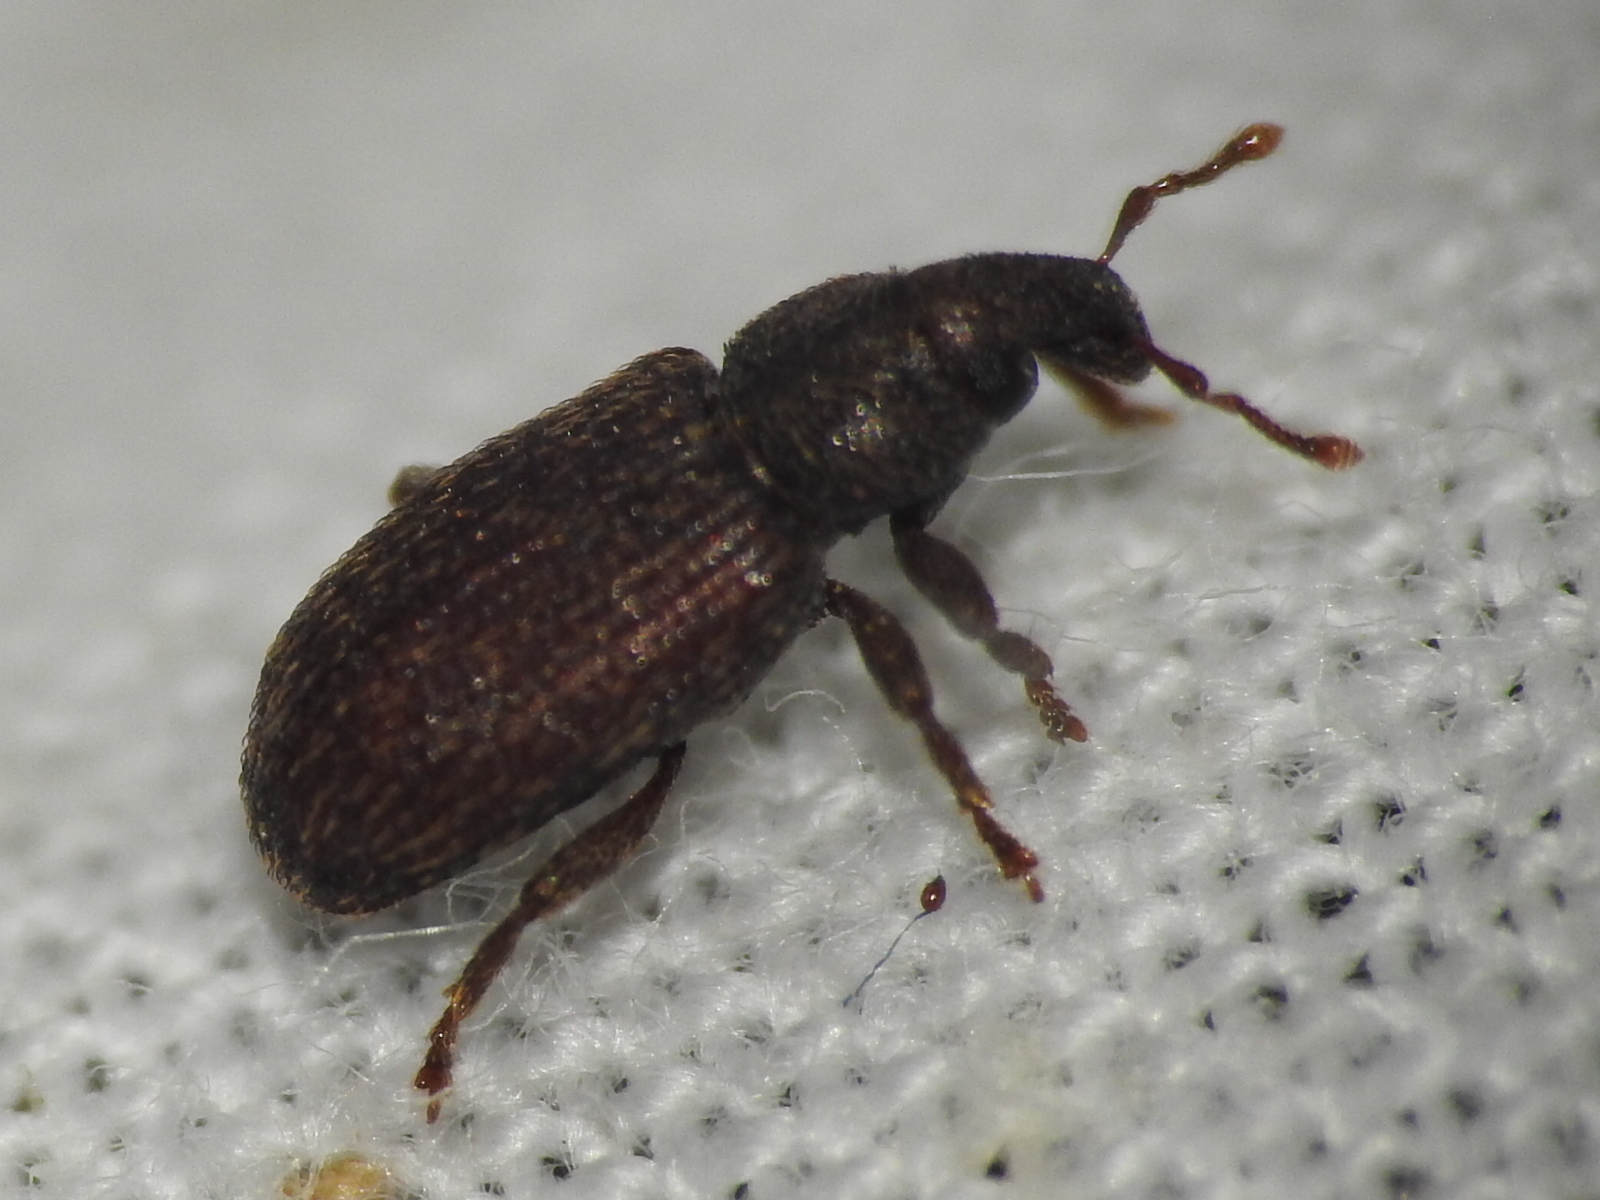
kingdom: Animalia
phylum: Arthropoda
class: Insecta
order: Coleoptera
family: Curculionidae
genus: Hormops
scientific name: Hormops abducens
